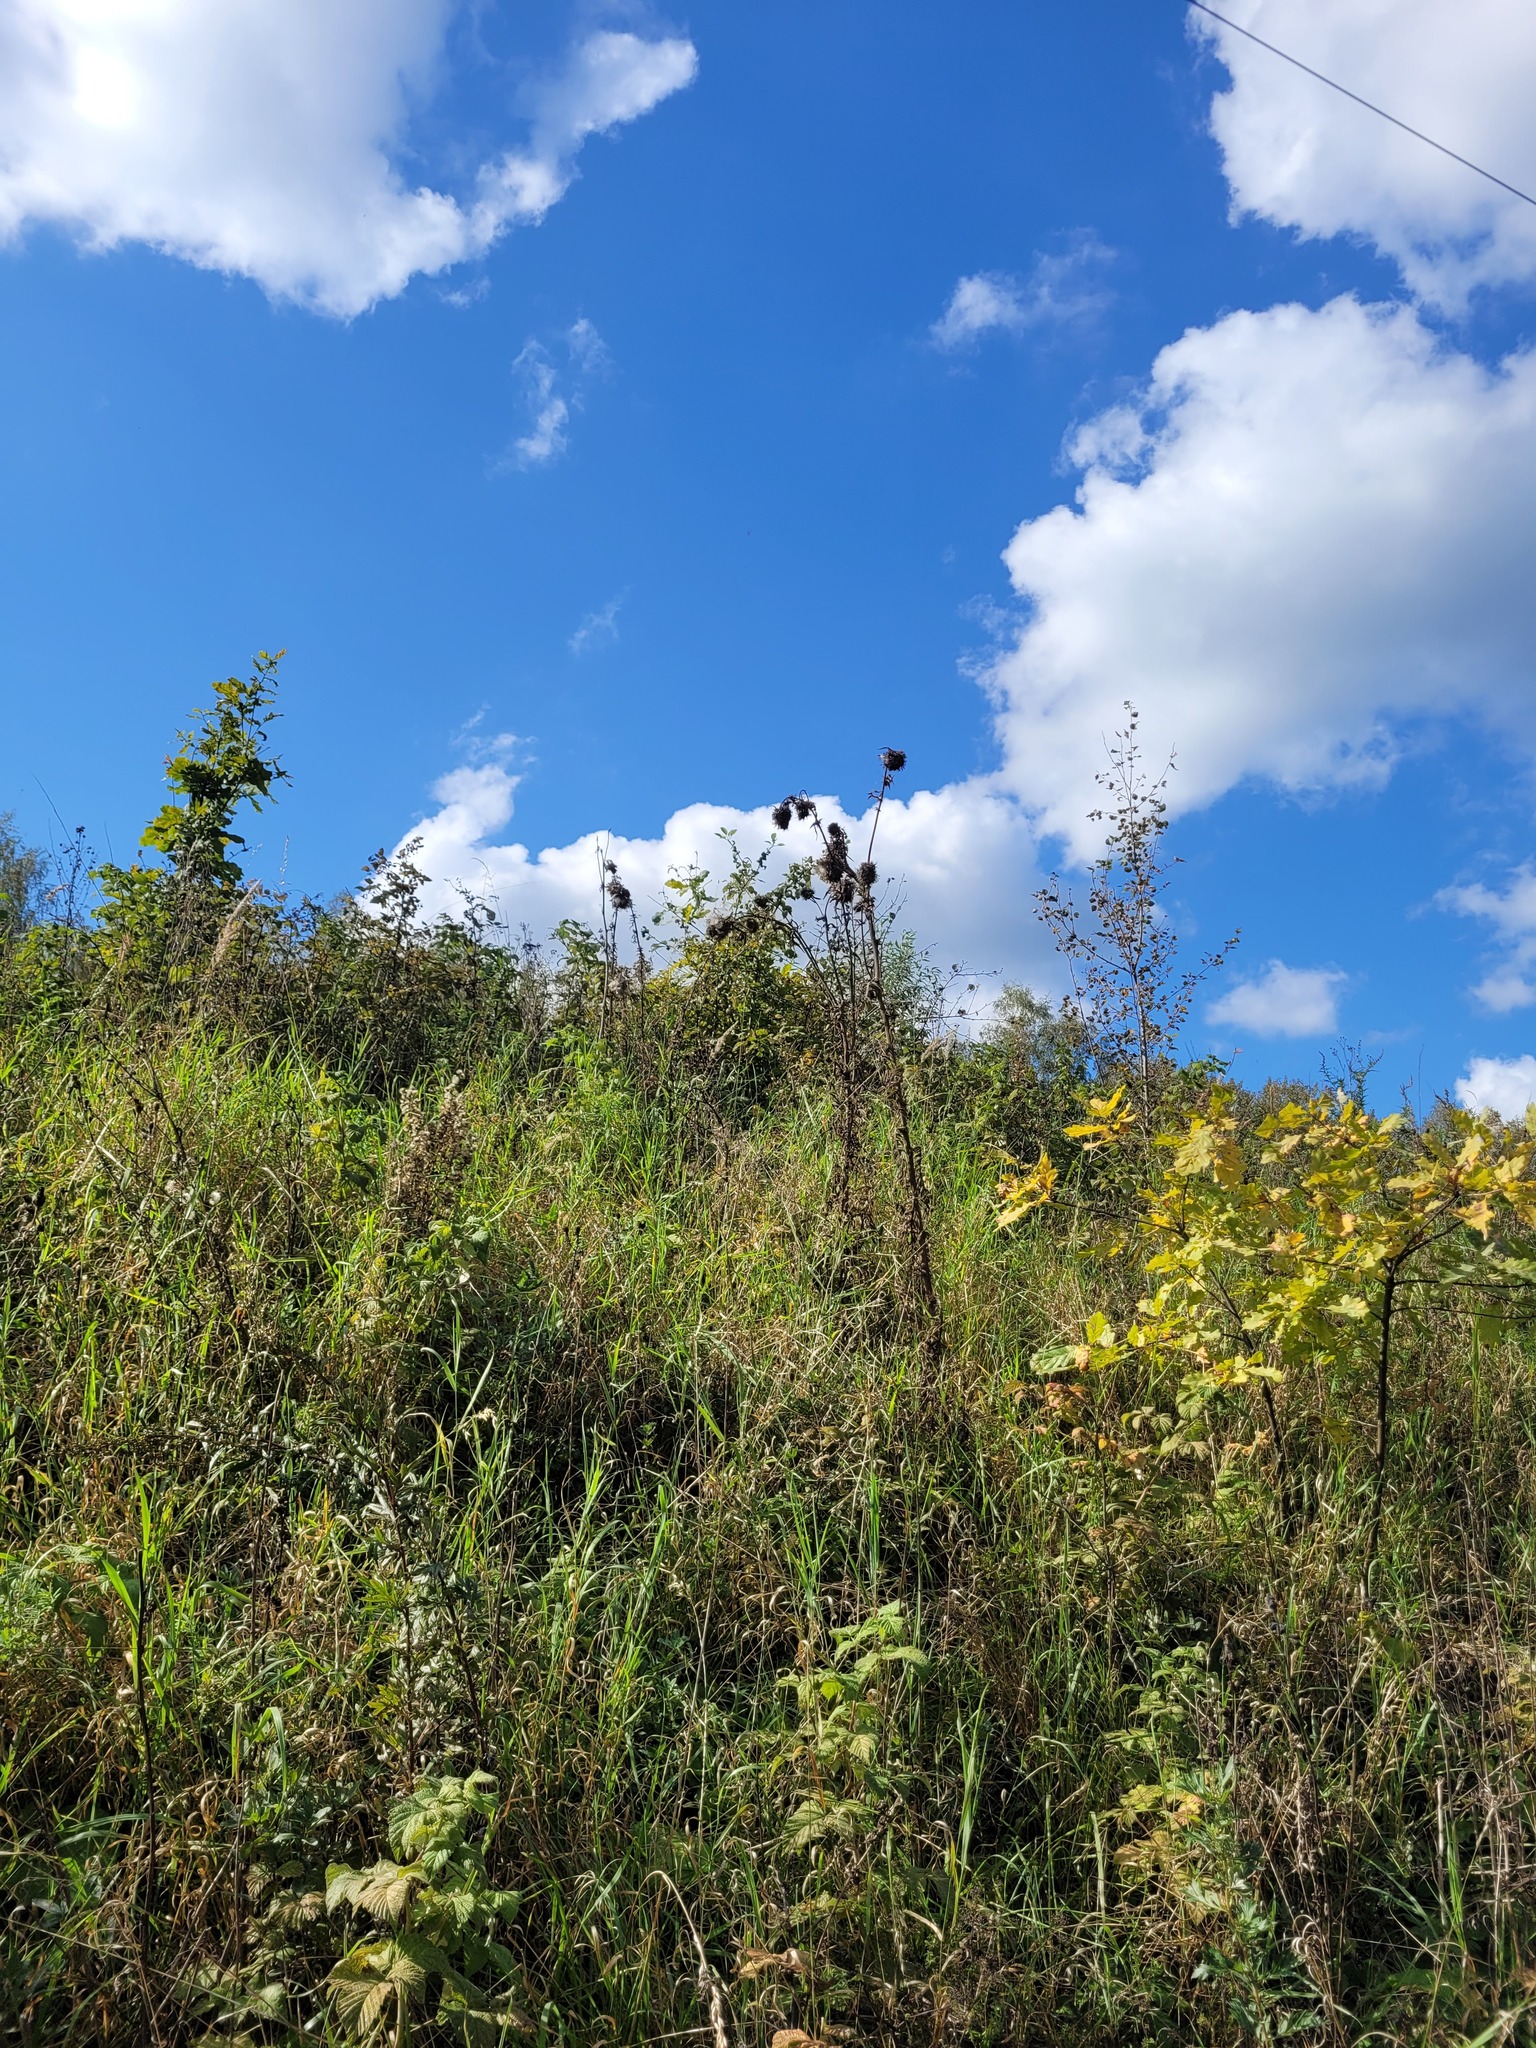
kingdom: Plantae
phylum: Tracheophyta
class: Magnoliopsida
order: Asterales
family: Asteraceae
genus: Lophiolepis
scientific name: Lophiolepis decussata
